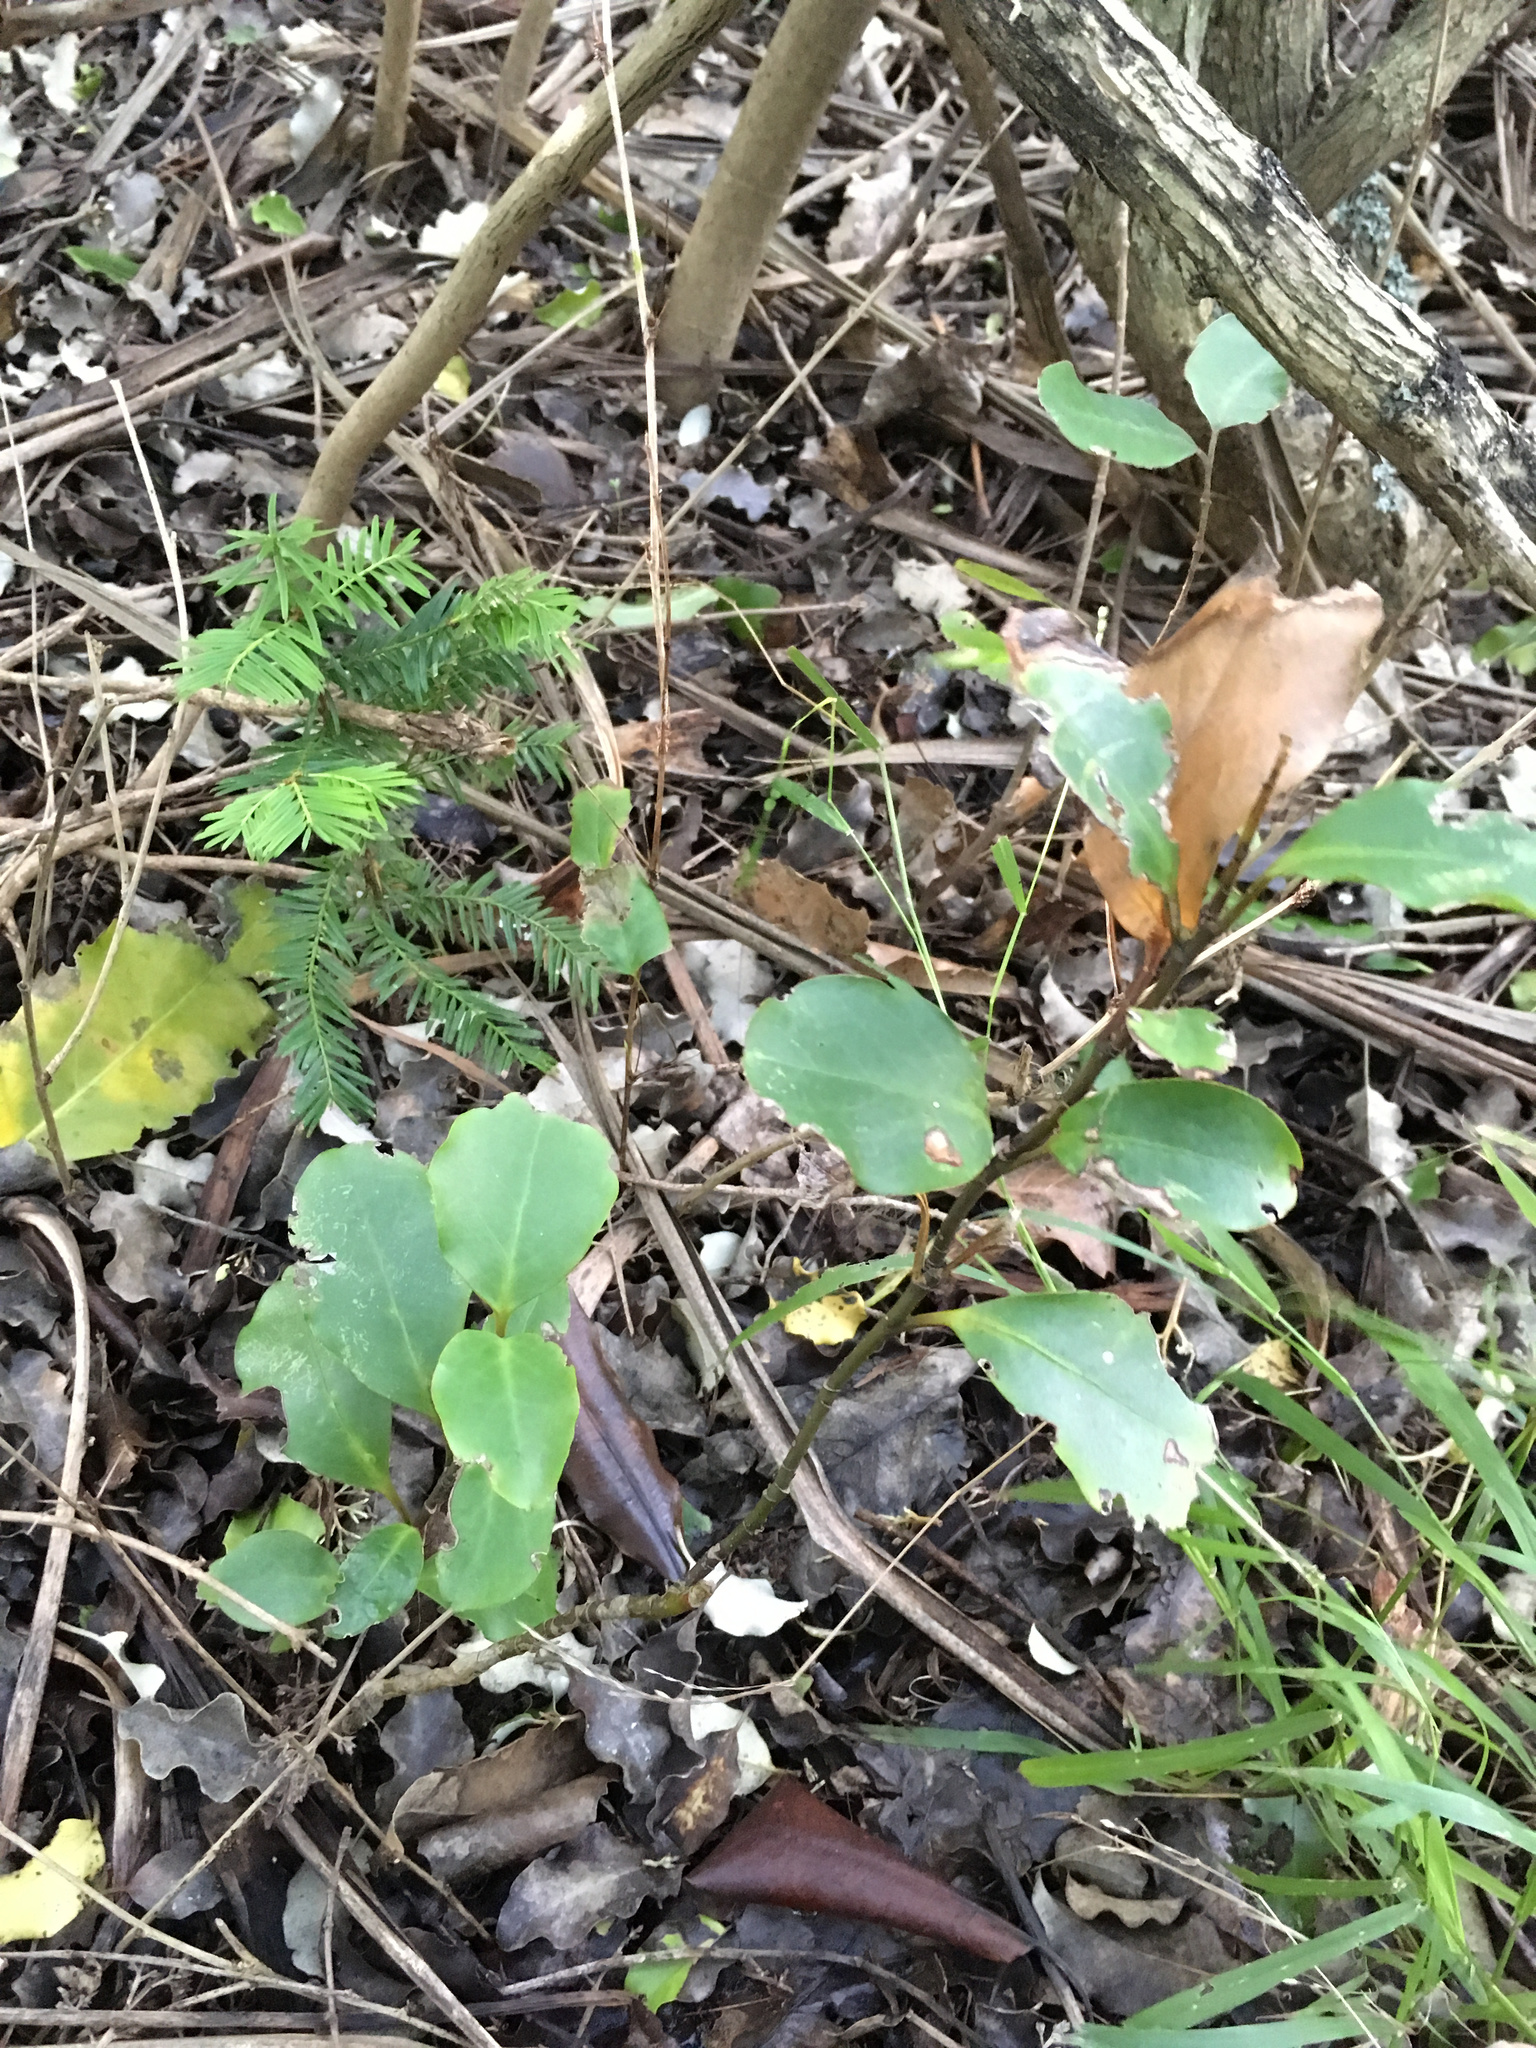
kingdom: Plantae
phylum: Tracheophyta
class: Magnoliopsida
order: Apiales
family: Griseliniaceae
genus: Griselinia
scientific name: Griselinia littoralis
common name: New zealand broadleaf
